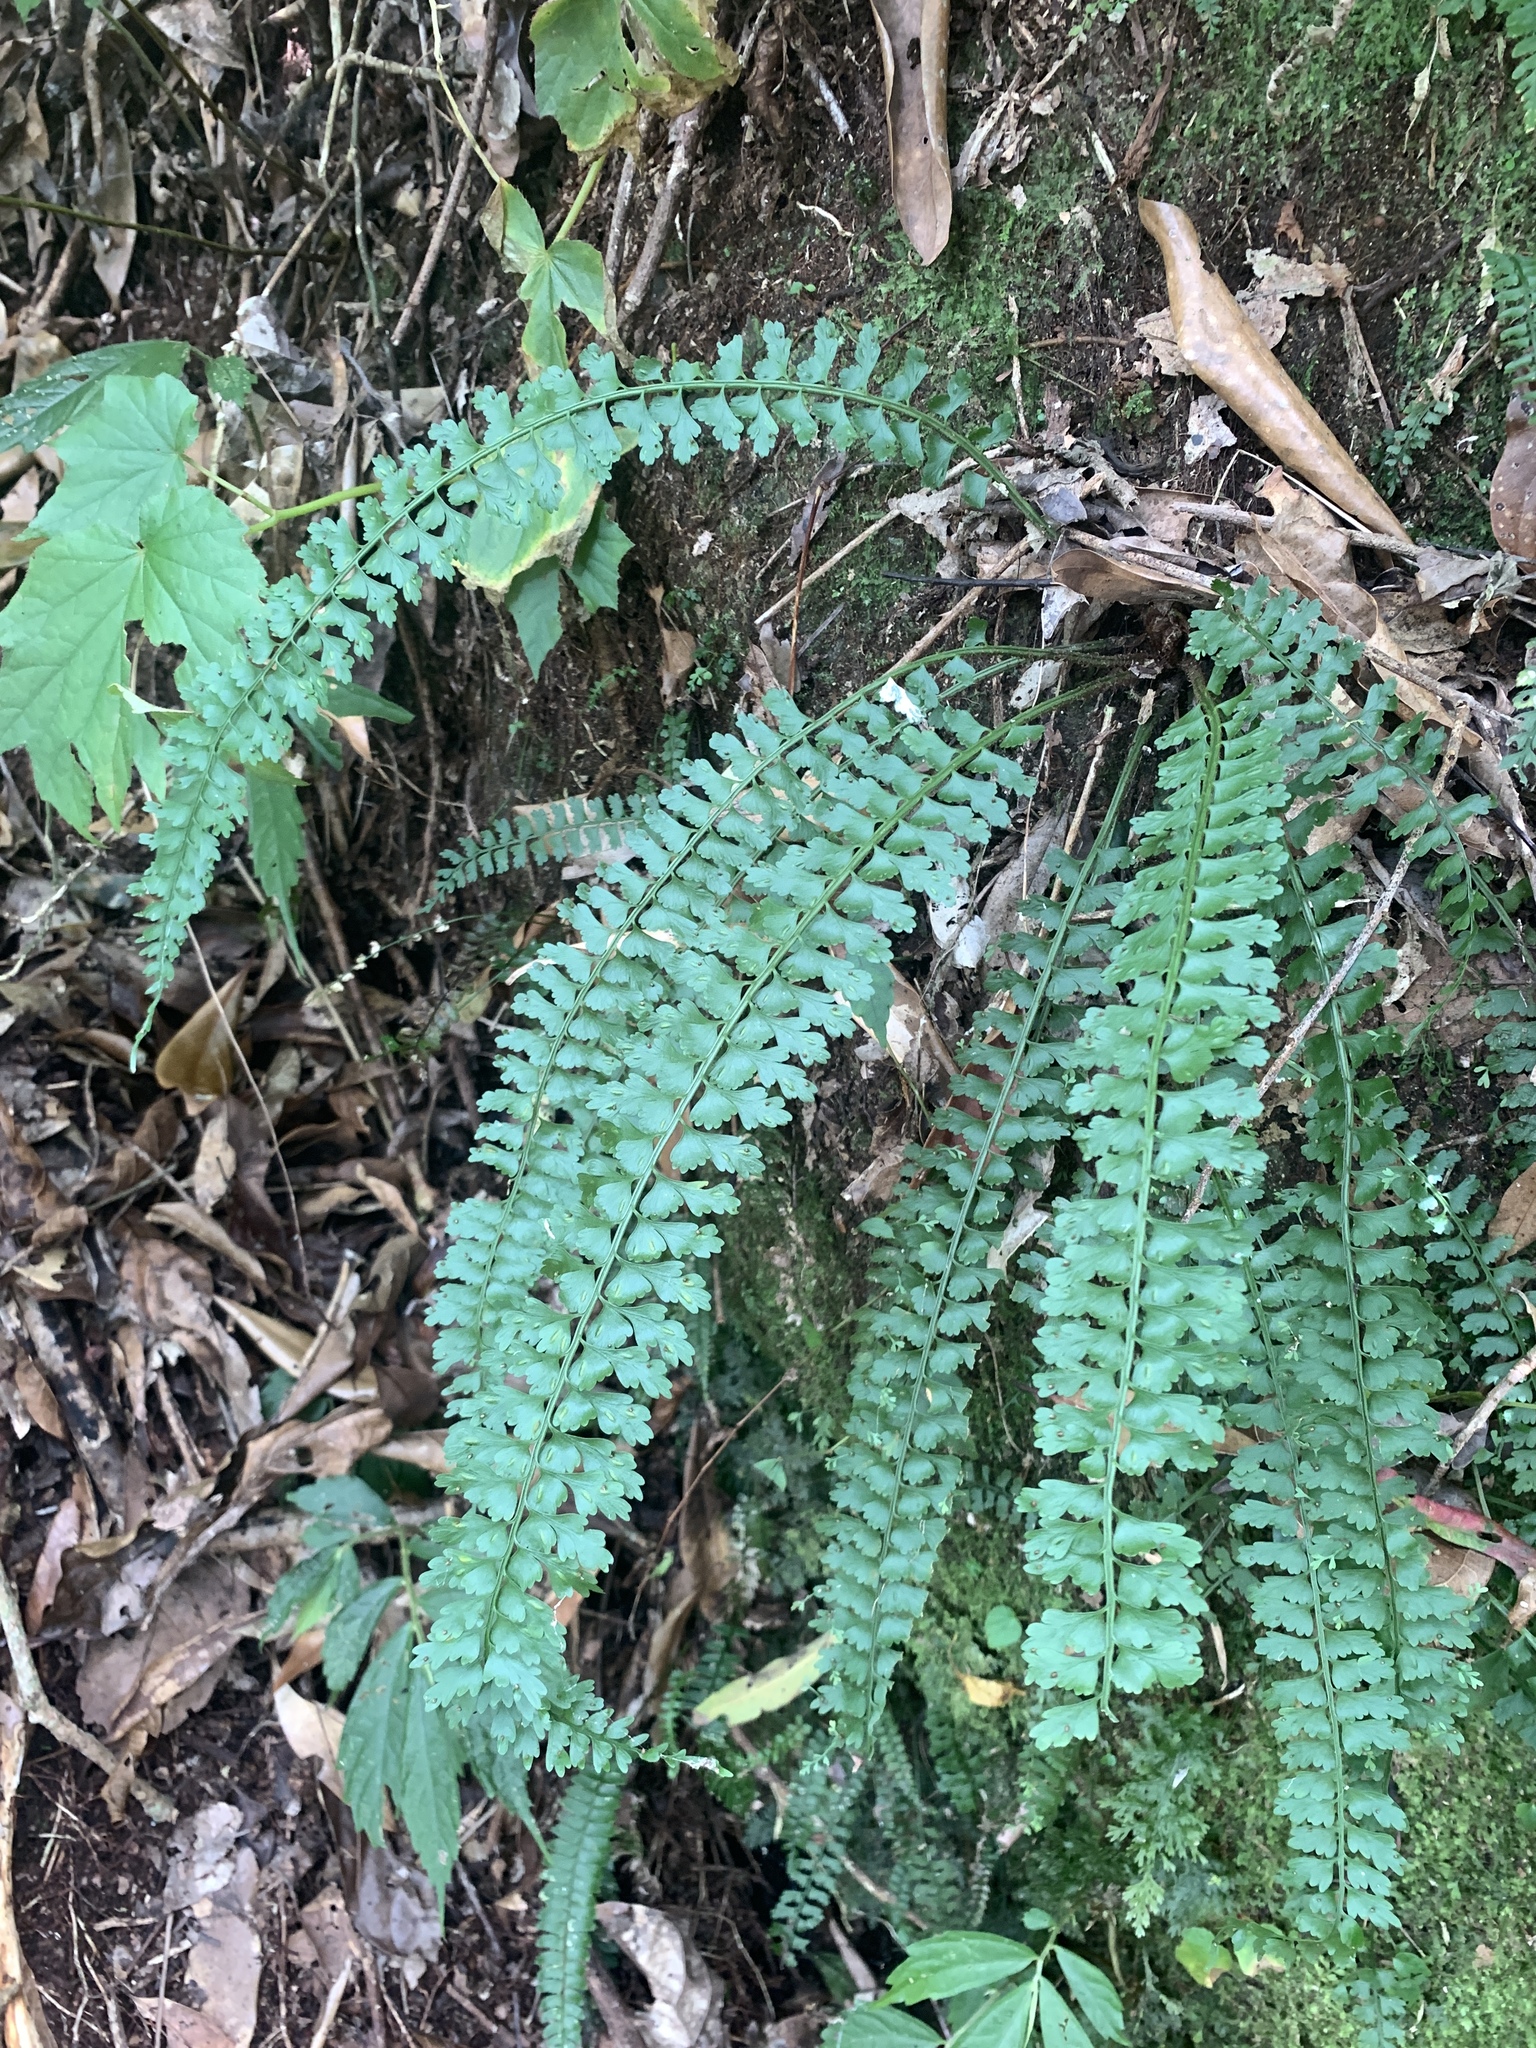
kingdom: Plantae
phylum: Tracheophyta
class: Polypodiopsida
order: Polypodiales
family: Aspleniaceae
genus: Asplenium
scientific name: Asplenium gueinzianum
